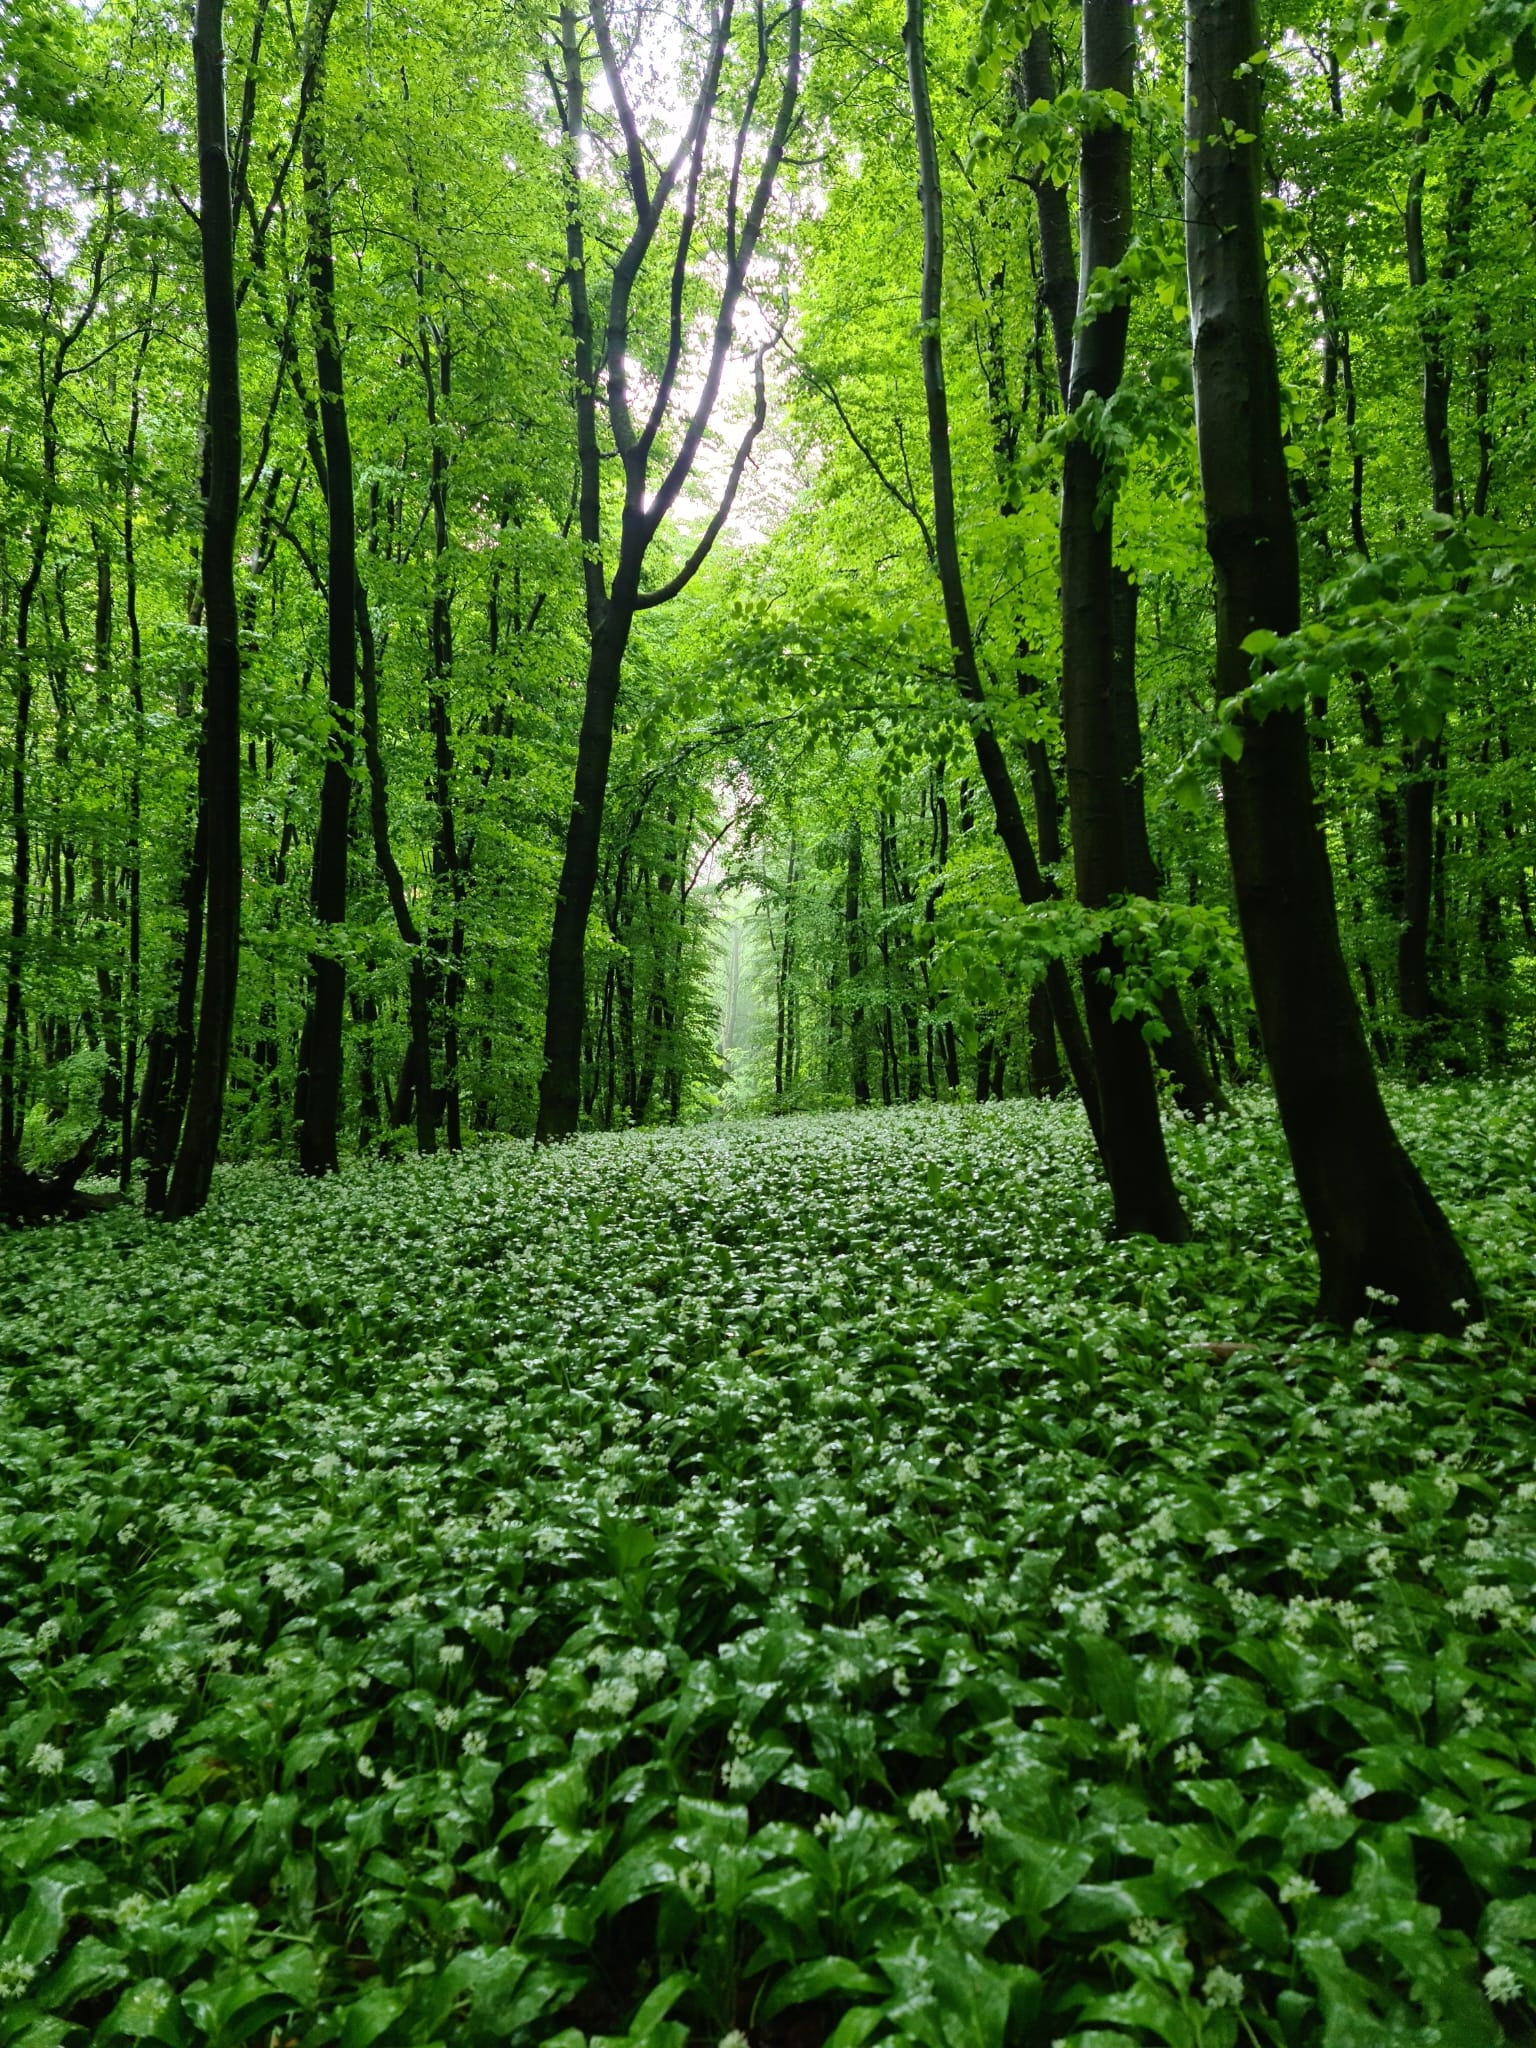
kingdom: Plantae
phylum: Tracheophyta
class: Liliopsida
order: Asparagales
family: Amaryllidaceae
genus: Allium
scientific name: Allium ursinum
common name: Ramsons
